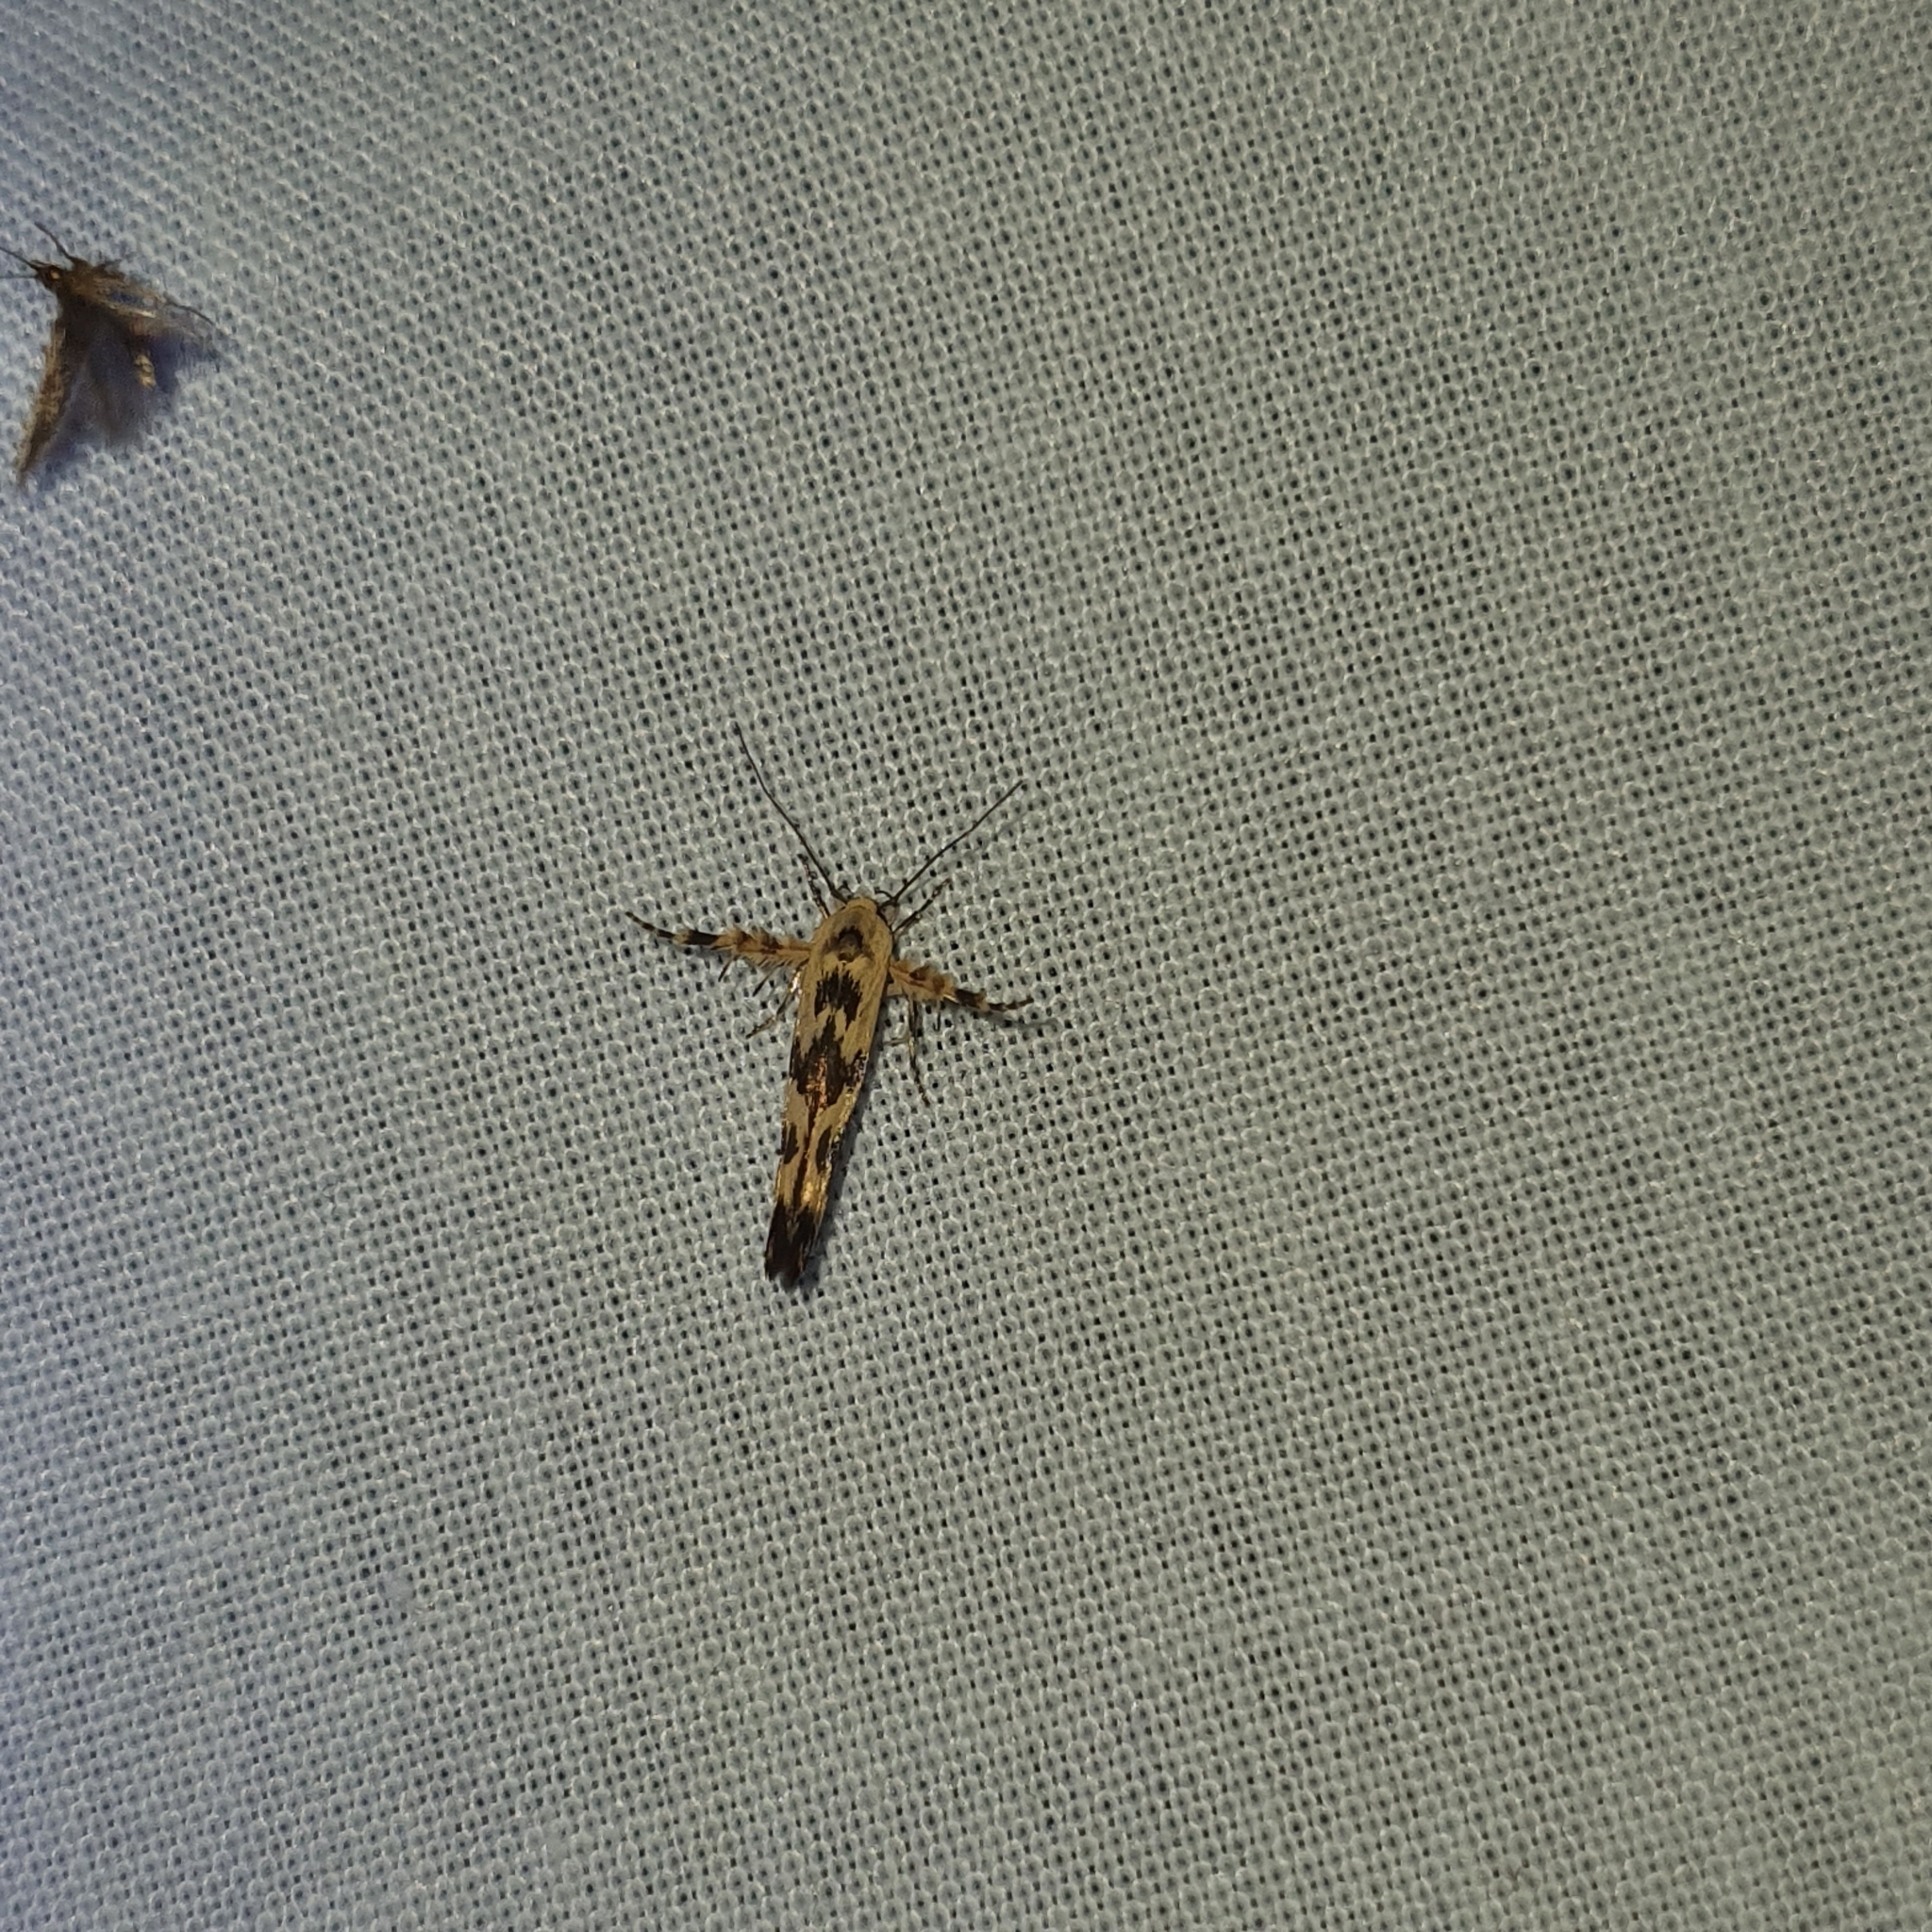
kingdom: Animalia
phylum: Arthropoda
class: Insecta
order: Lepidoptera
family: Stathmopodidae
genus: Stathmopoda
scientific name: Stathmopoda melanochra
